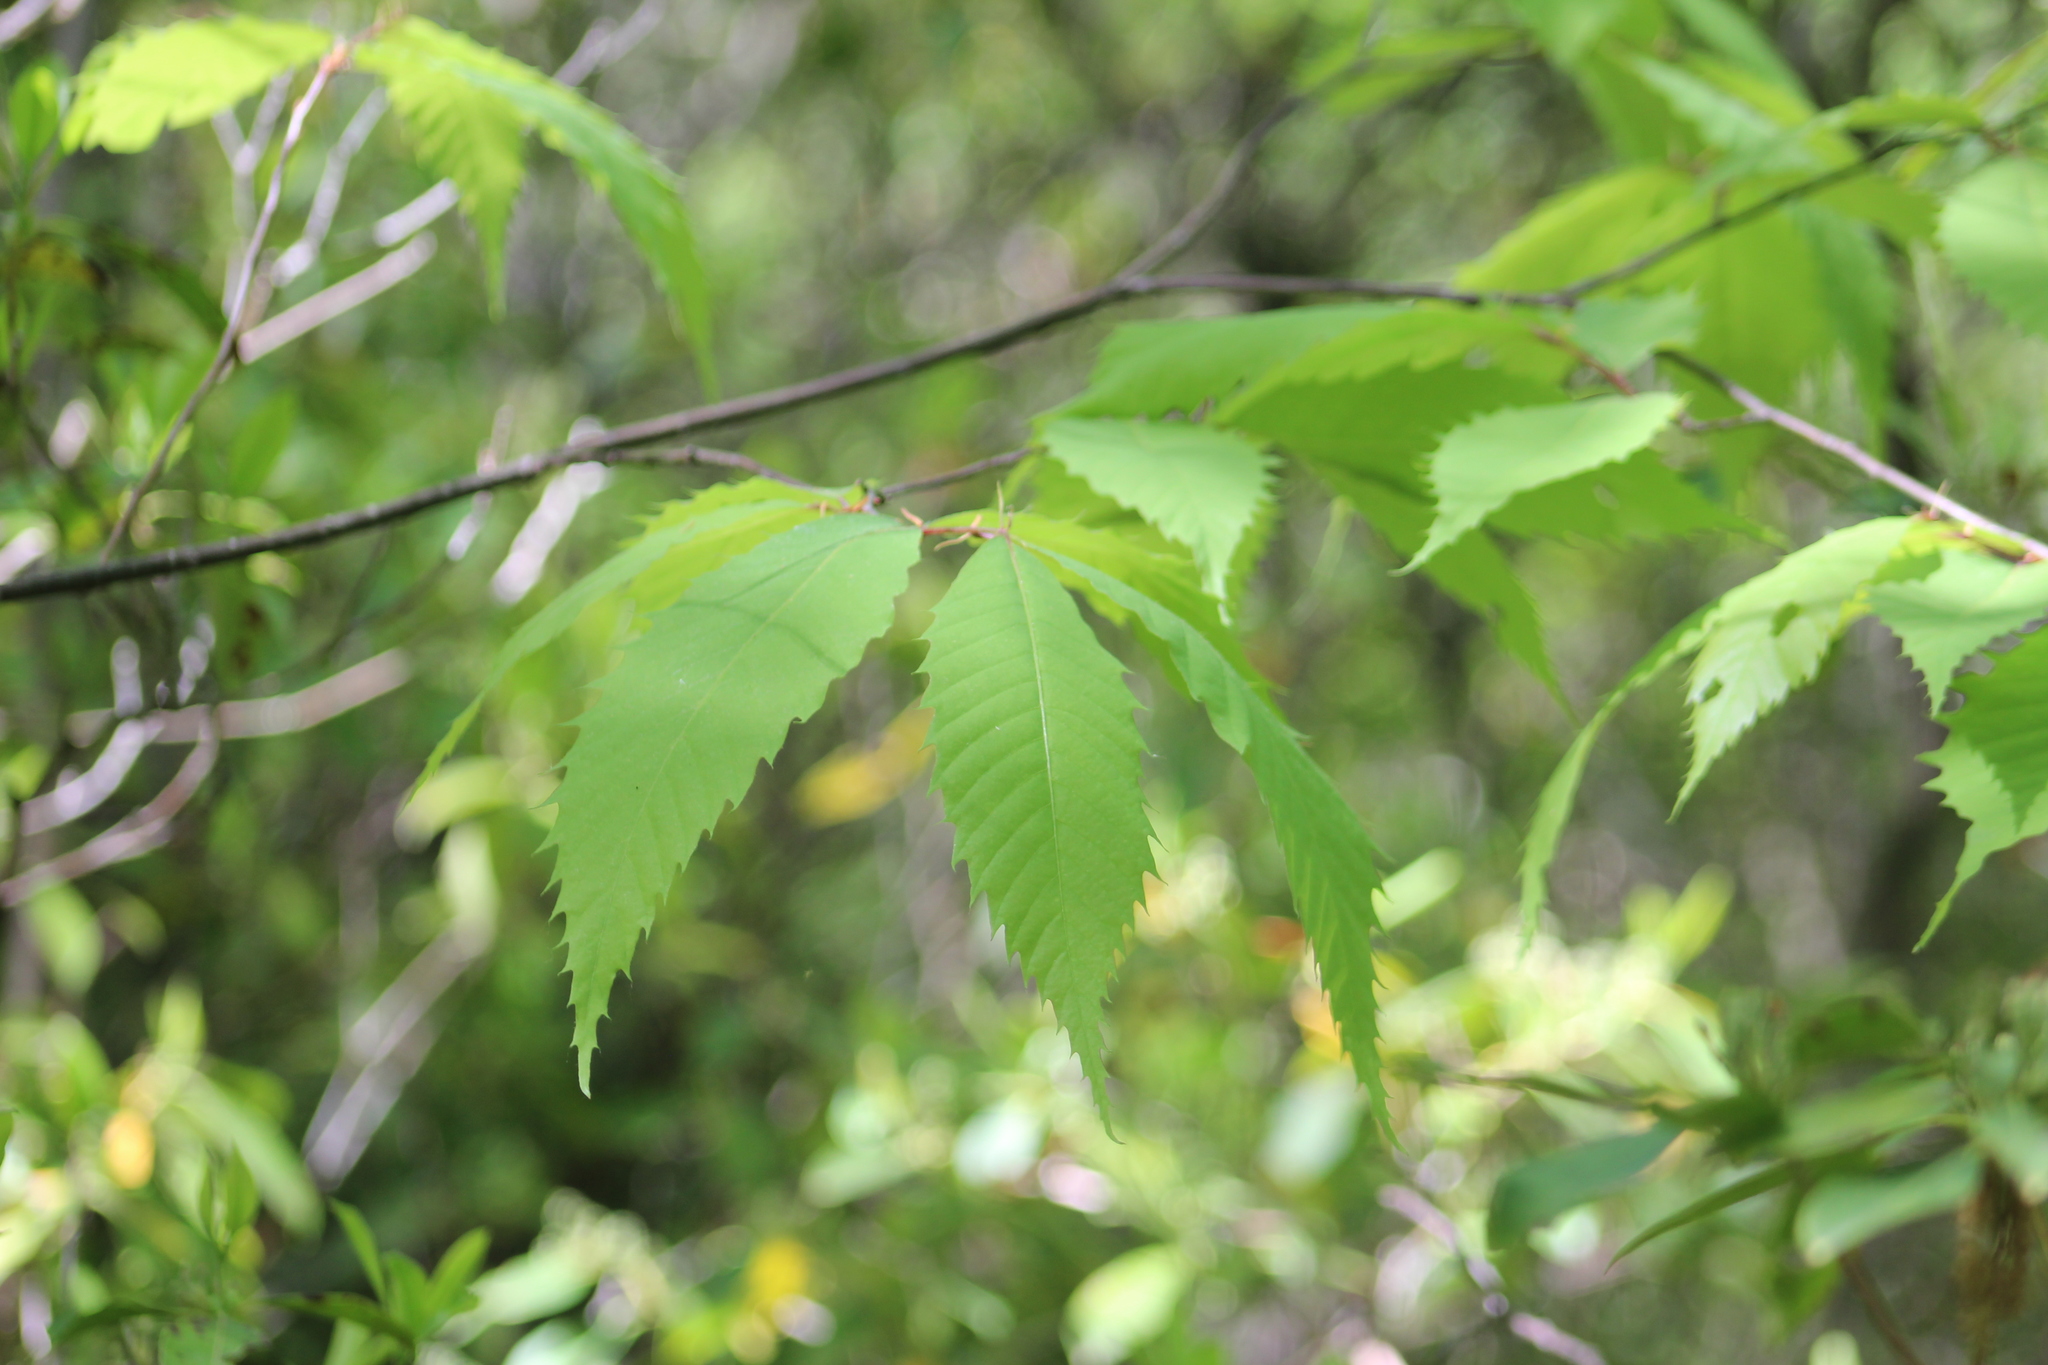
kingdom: Plantae
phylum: Tracheophyta
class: Magnoliopsida
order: Fagales
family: Fagaceae
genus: Castanea
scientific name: Castanea dentata
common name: American chestnut
